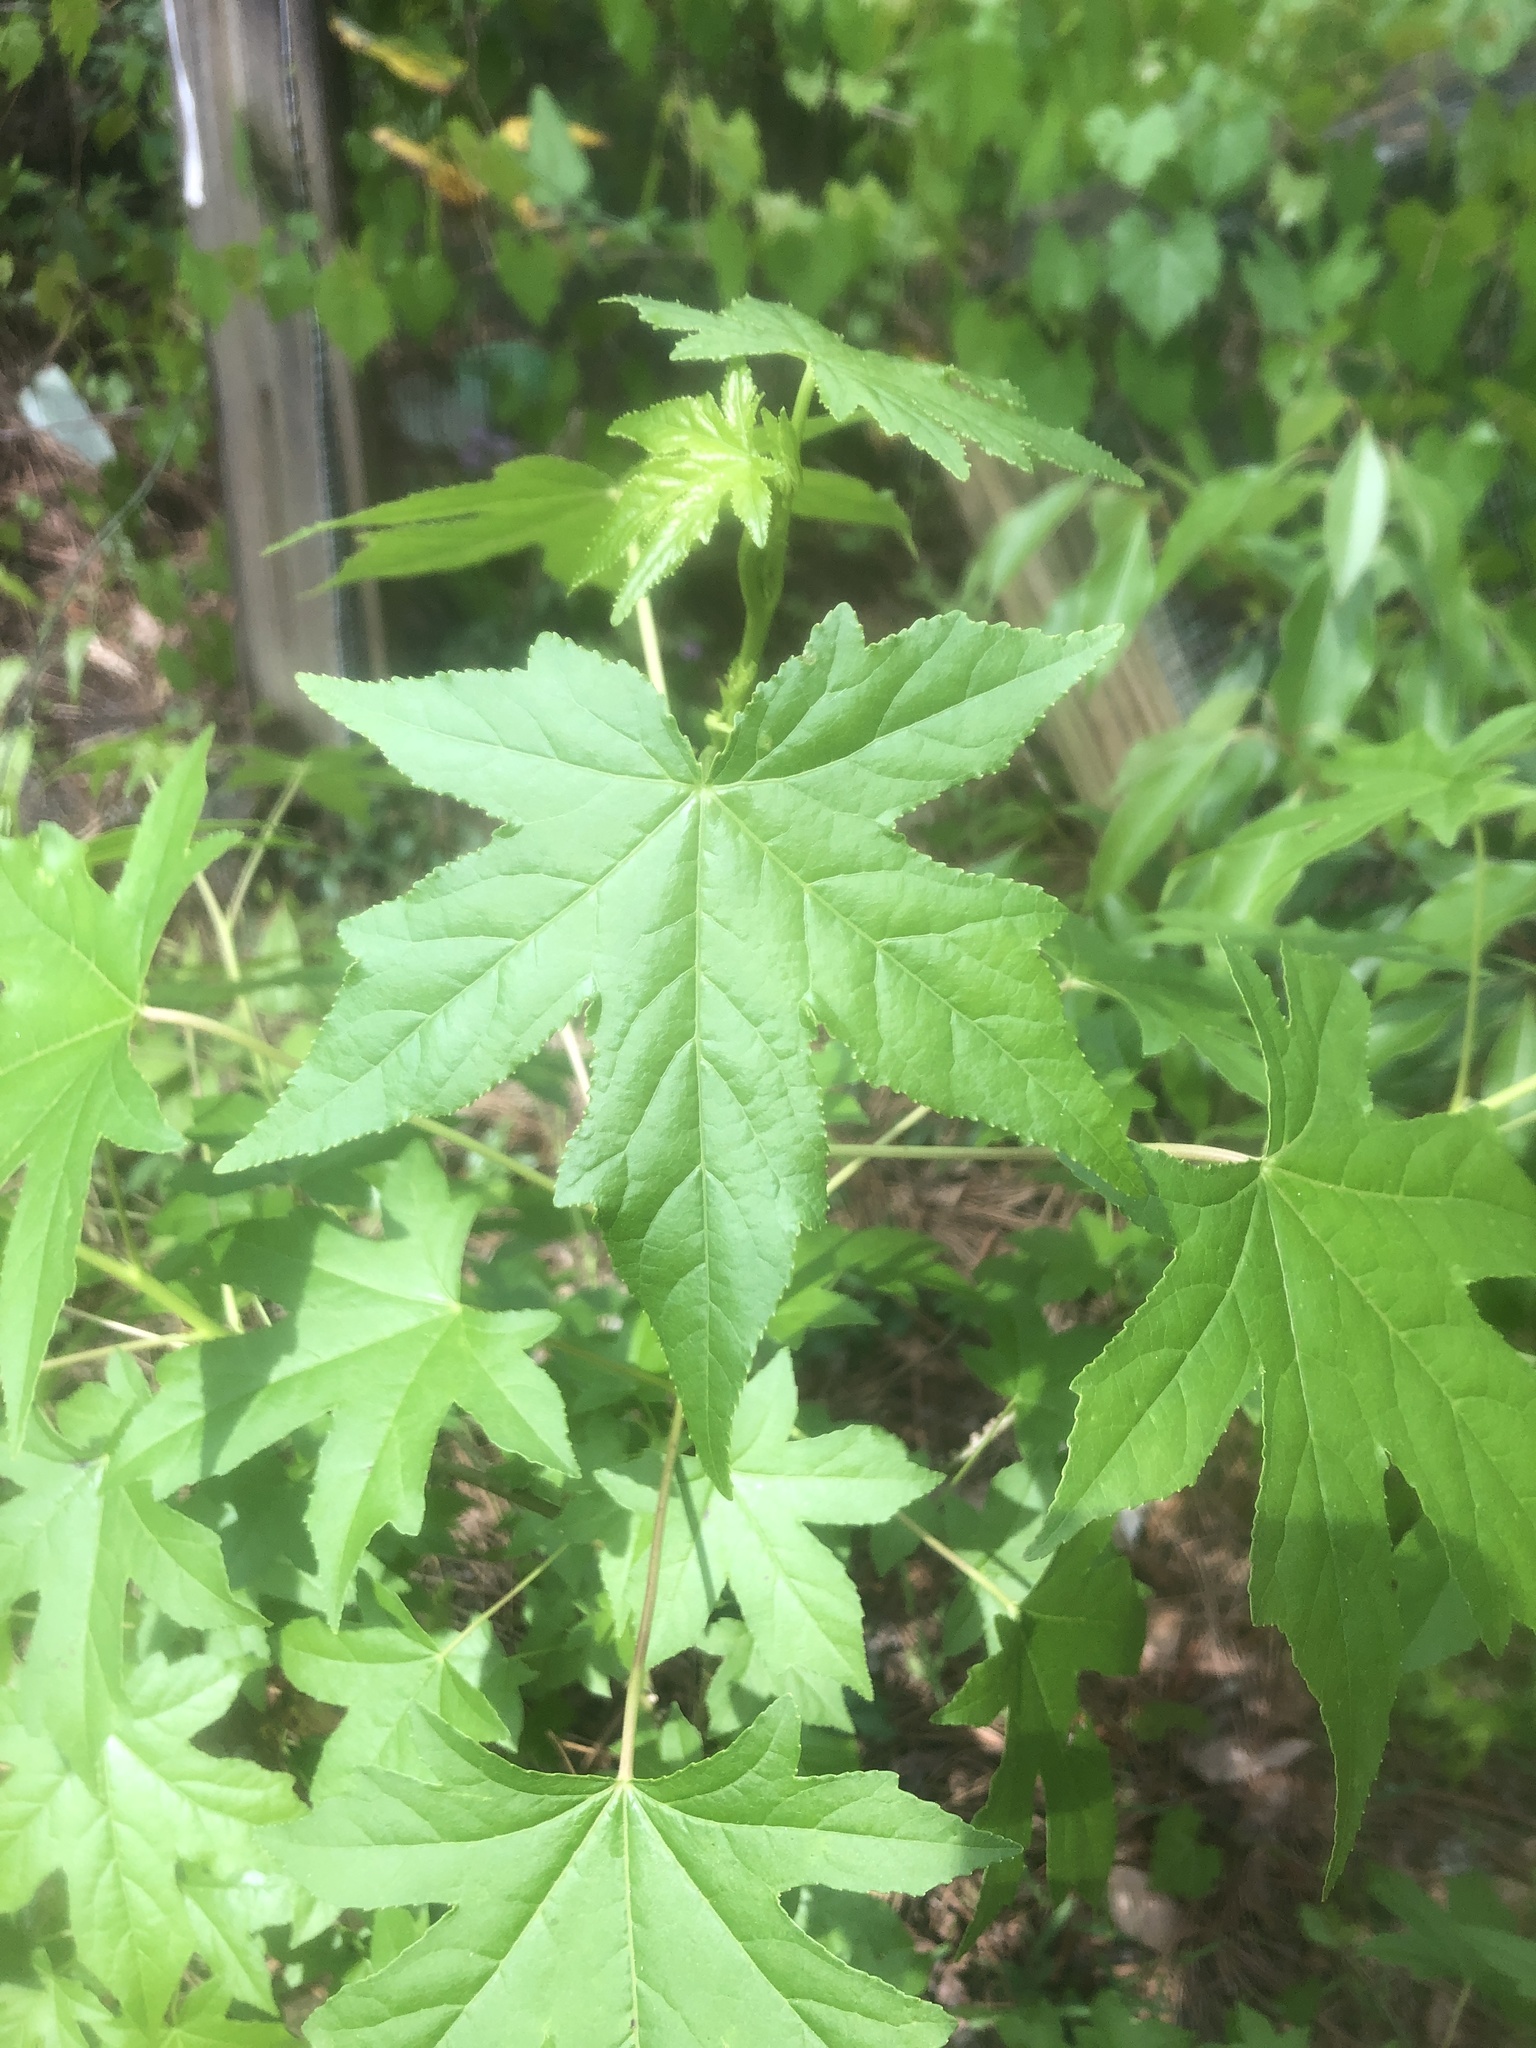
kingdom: Plantae
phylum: Tracheophyta
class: Magnoliopsida
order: Saxifragales
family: Altingiaceae
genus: Liquidambar
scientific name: Liquidambar styraciflua
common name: Sweet gum
